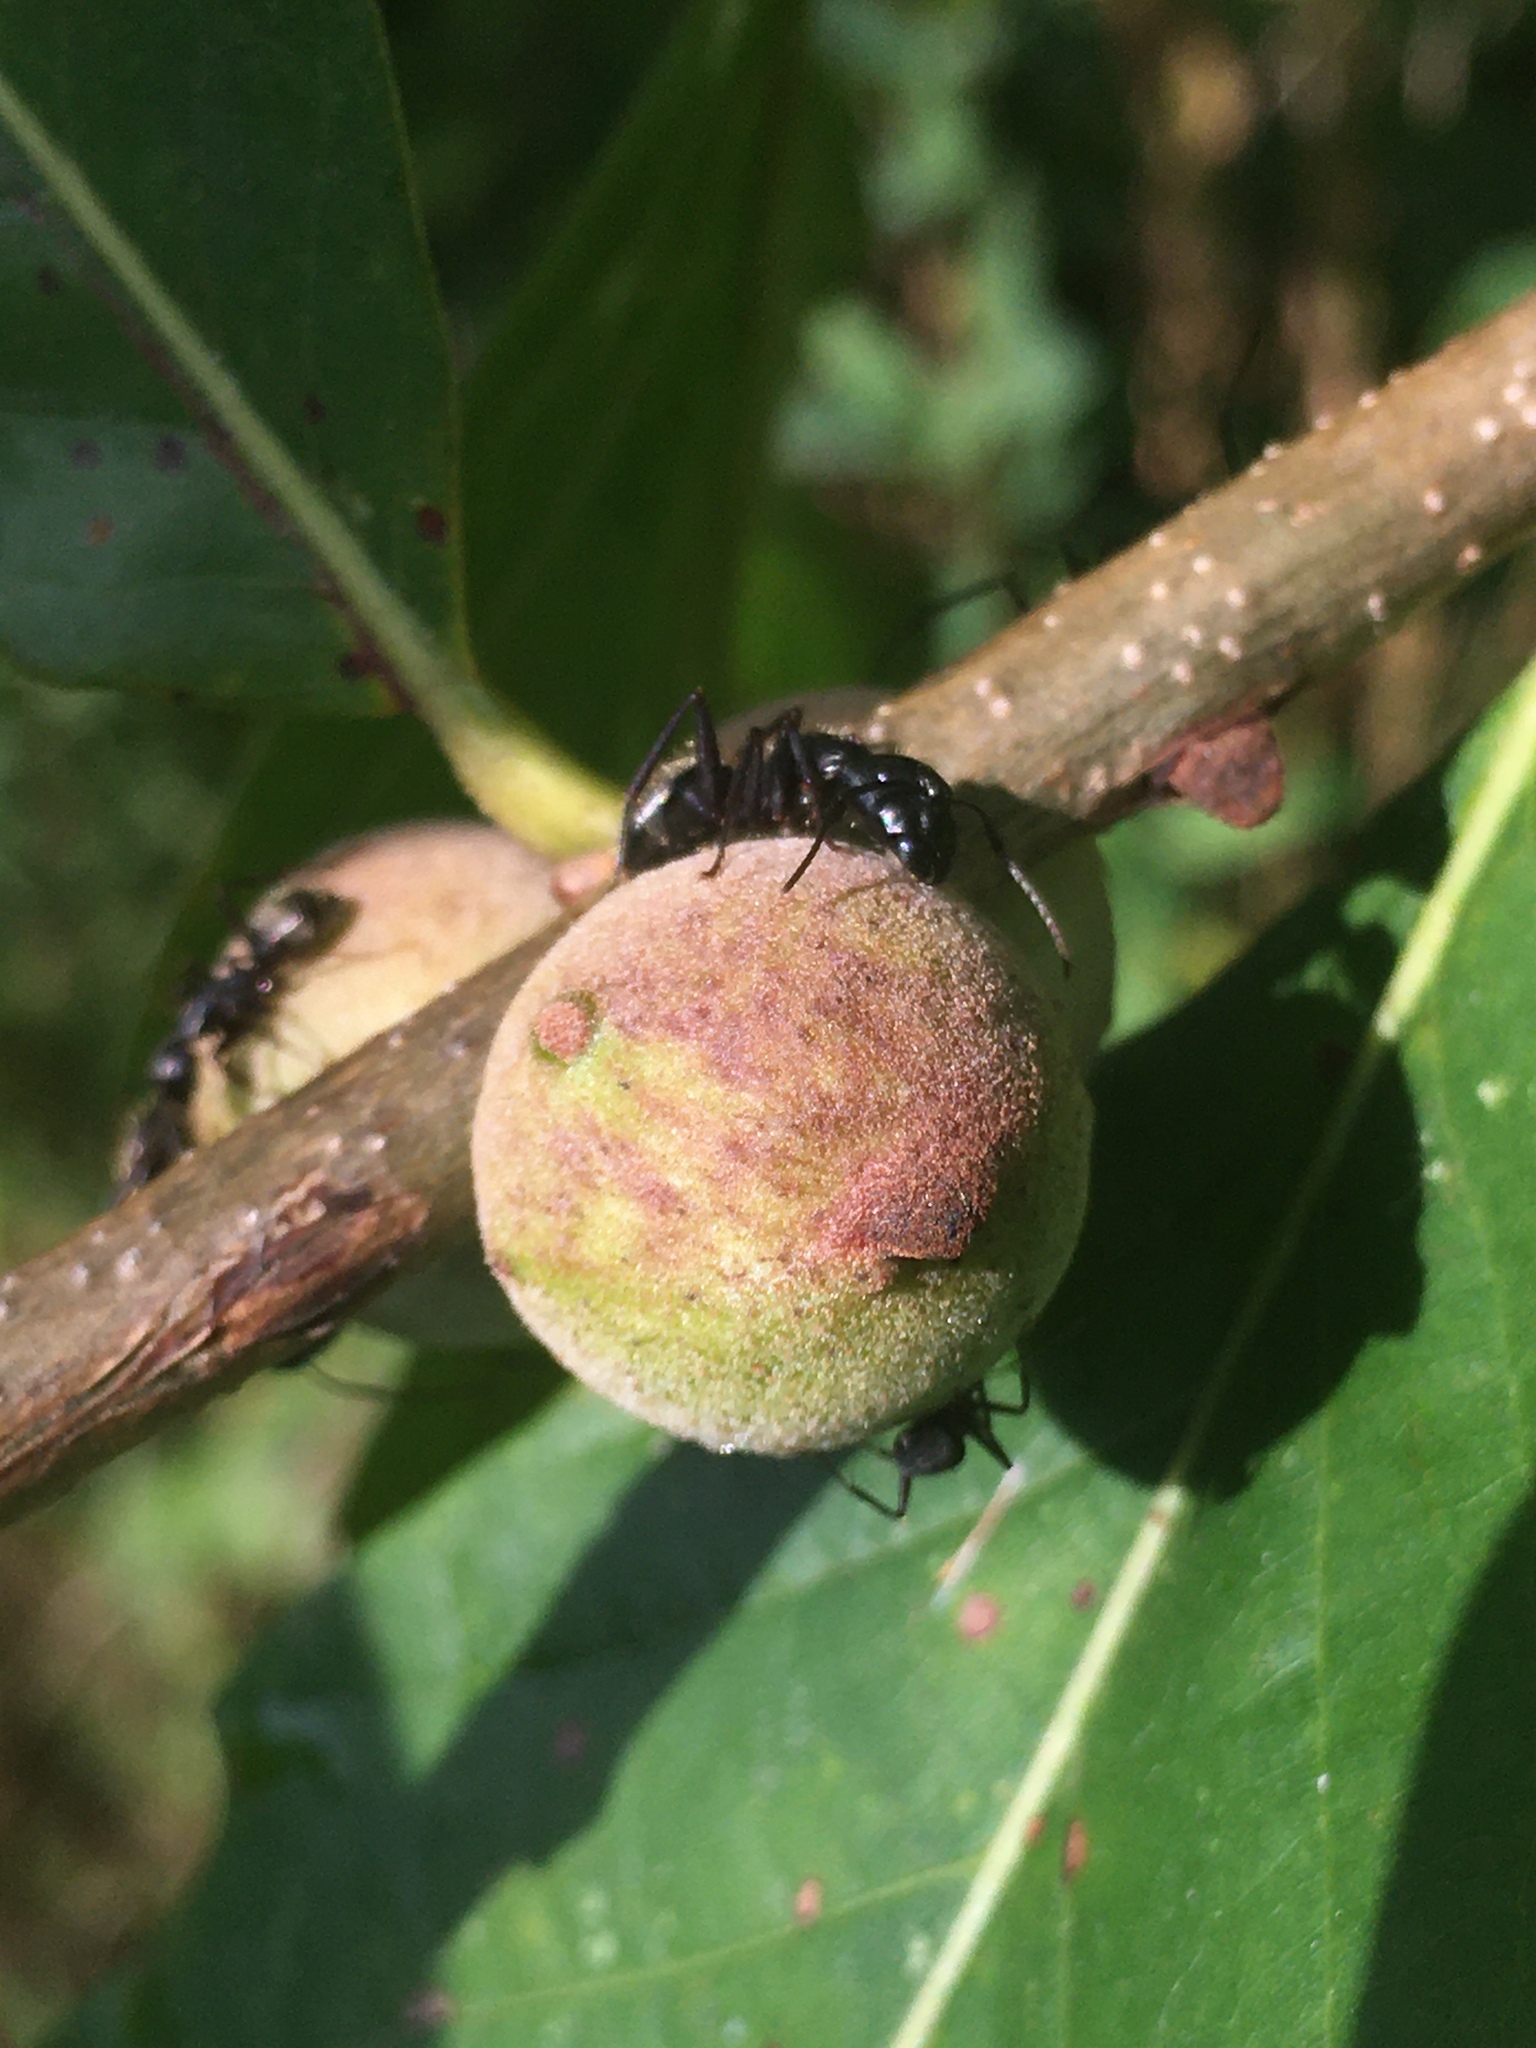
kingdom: Animalia
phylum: Arthropoda
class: Insecta
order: Hymenoptera
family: Formicidae
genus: Camponotus
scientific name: Camponotus pennsylvanicus
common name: Black carpenter ant
